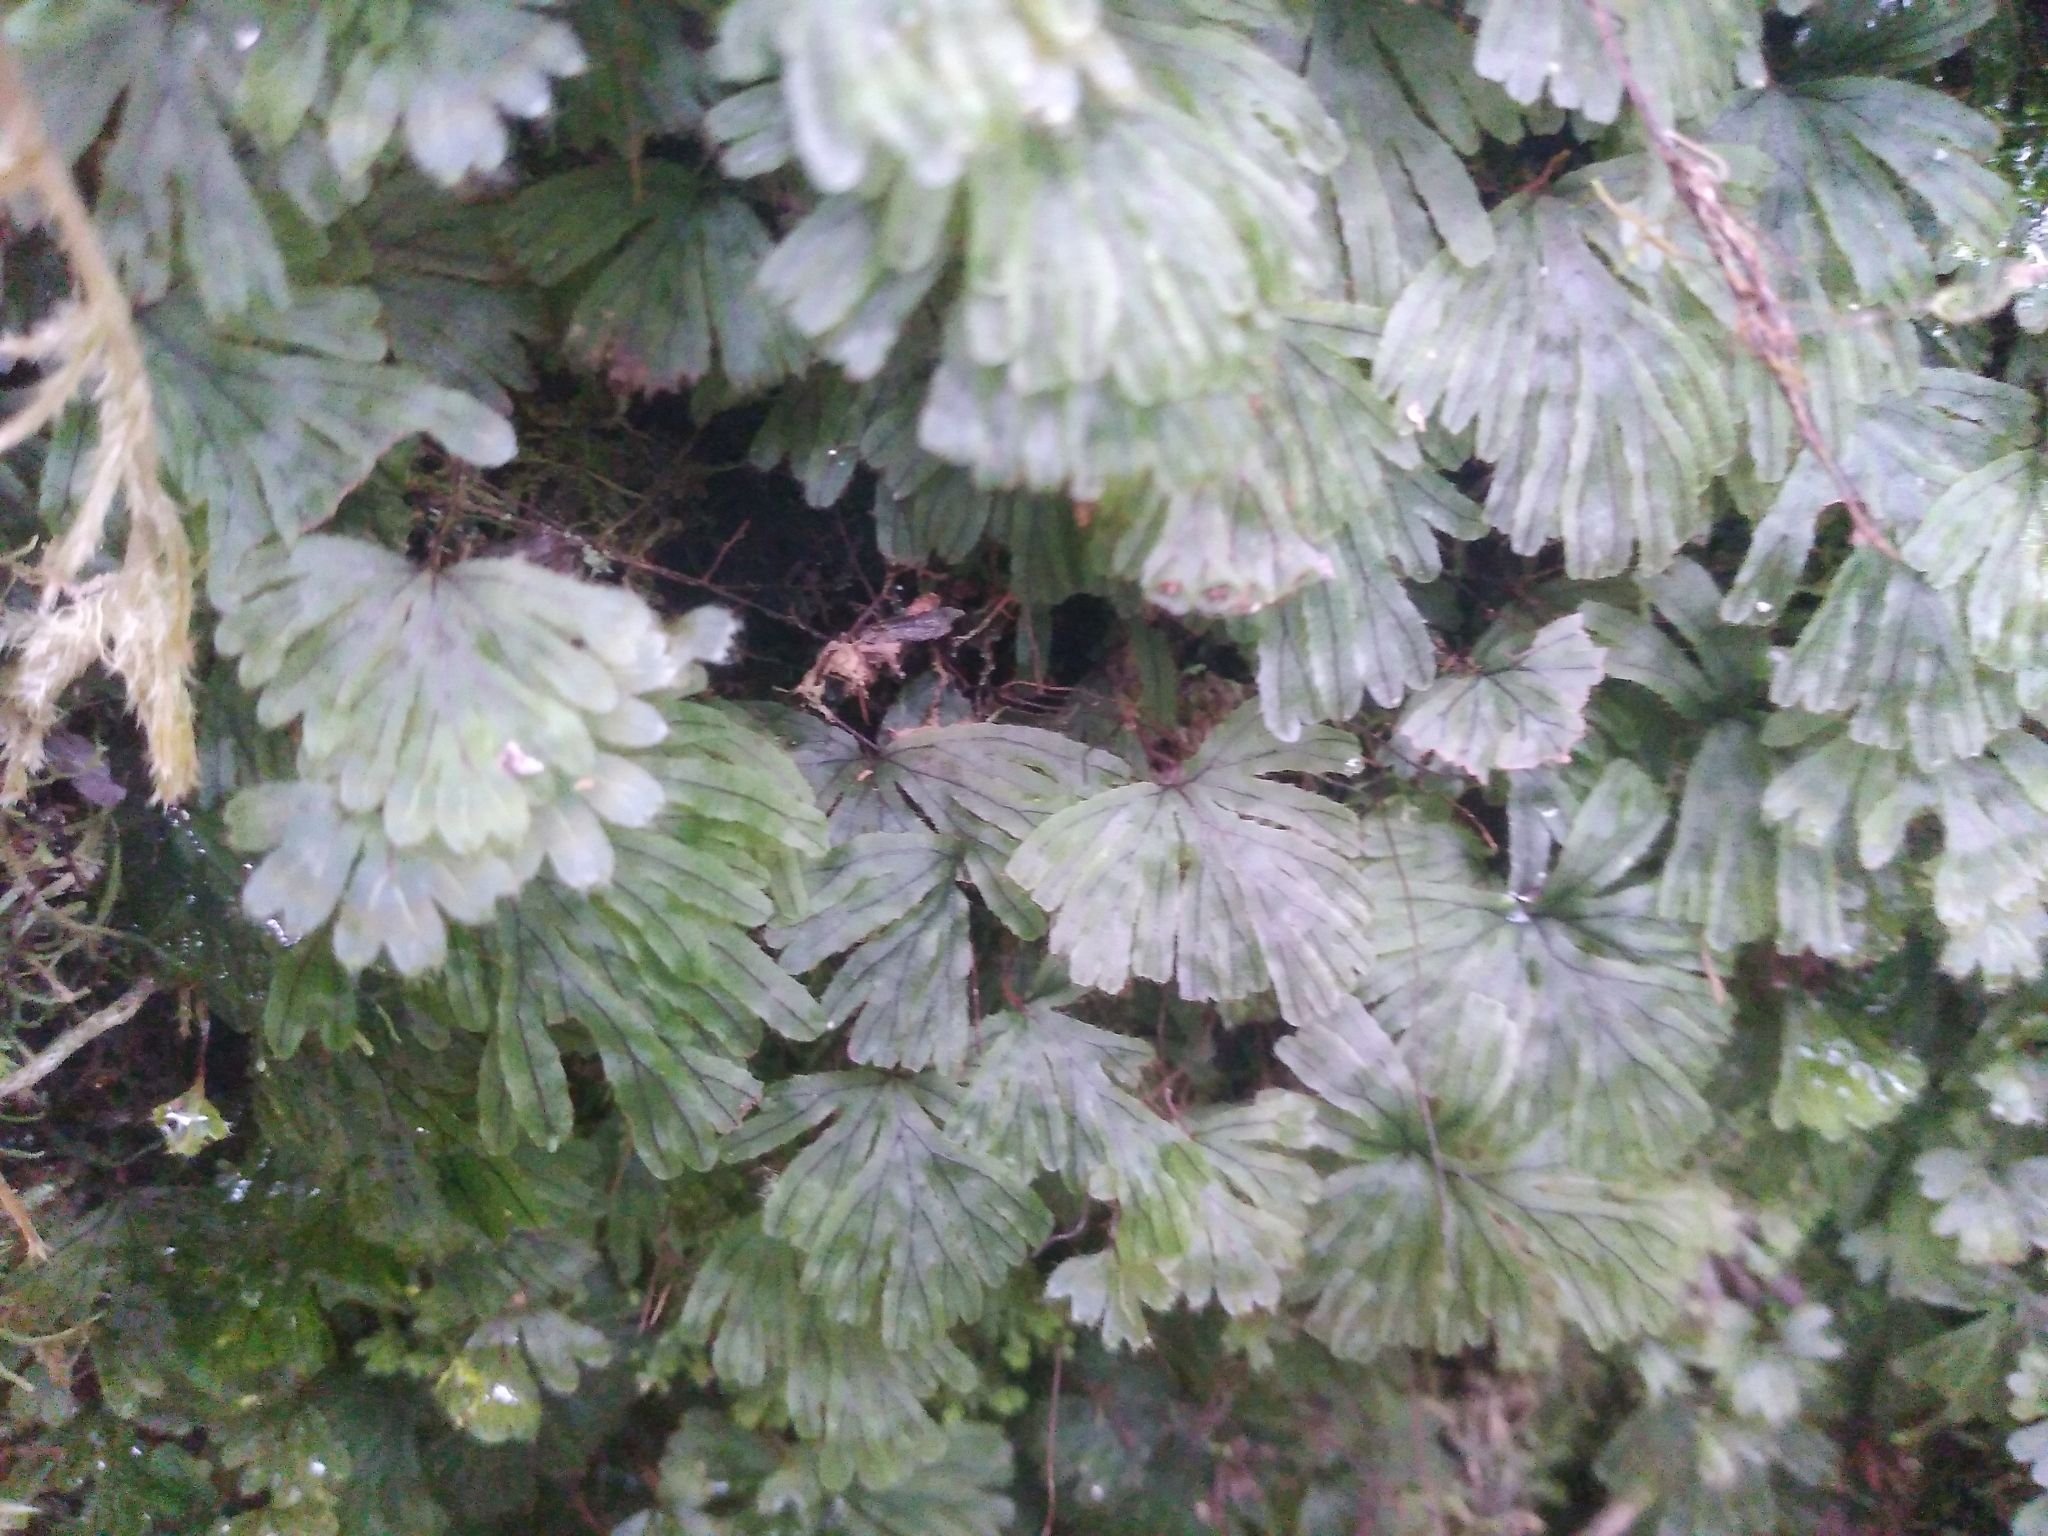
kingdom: Plantae
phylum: Tracheophyta
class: Polypodiopsida
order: Hymenophyllales
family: Hymenophyllaceae
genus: Hymenophyllum
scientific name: Hymenophyllum lyallii
